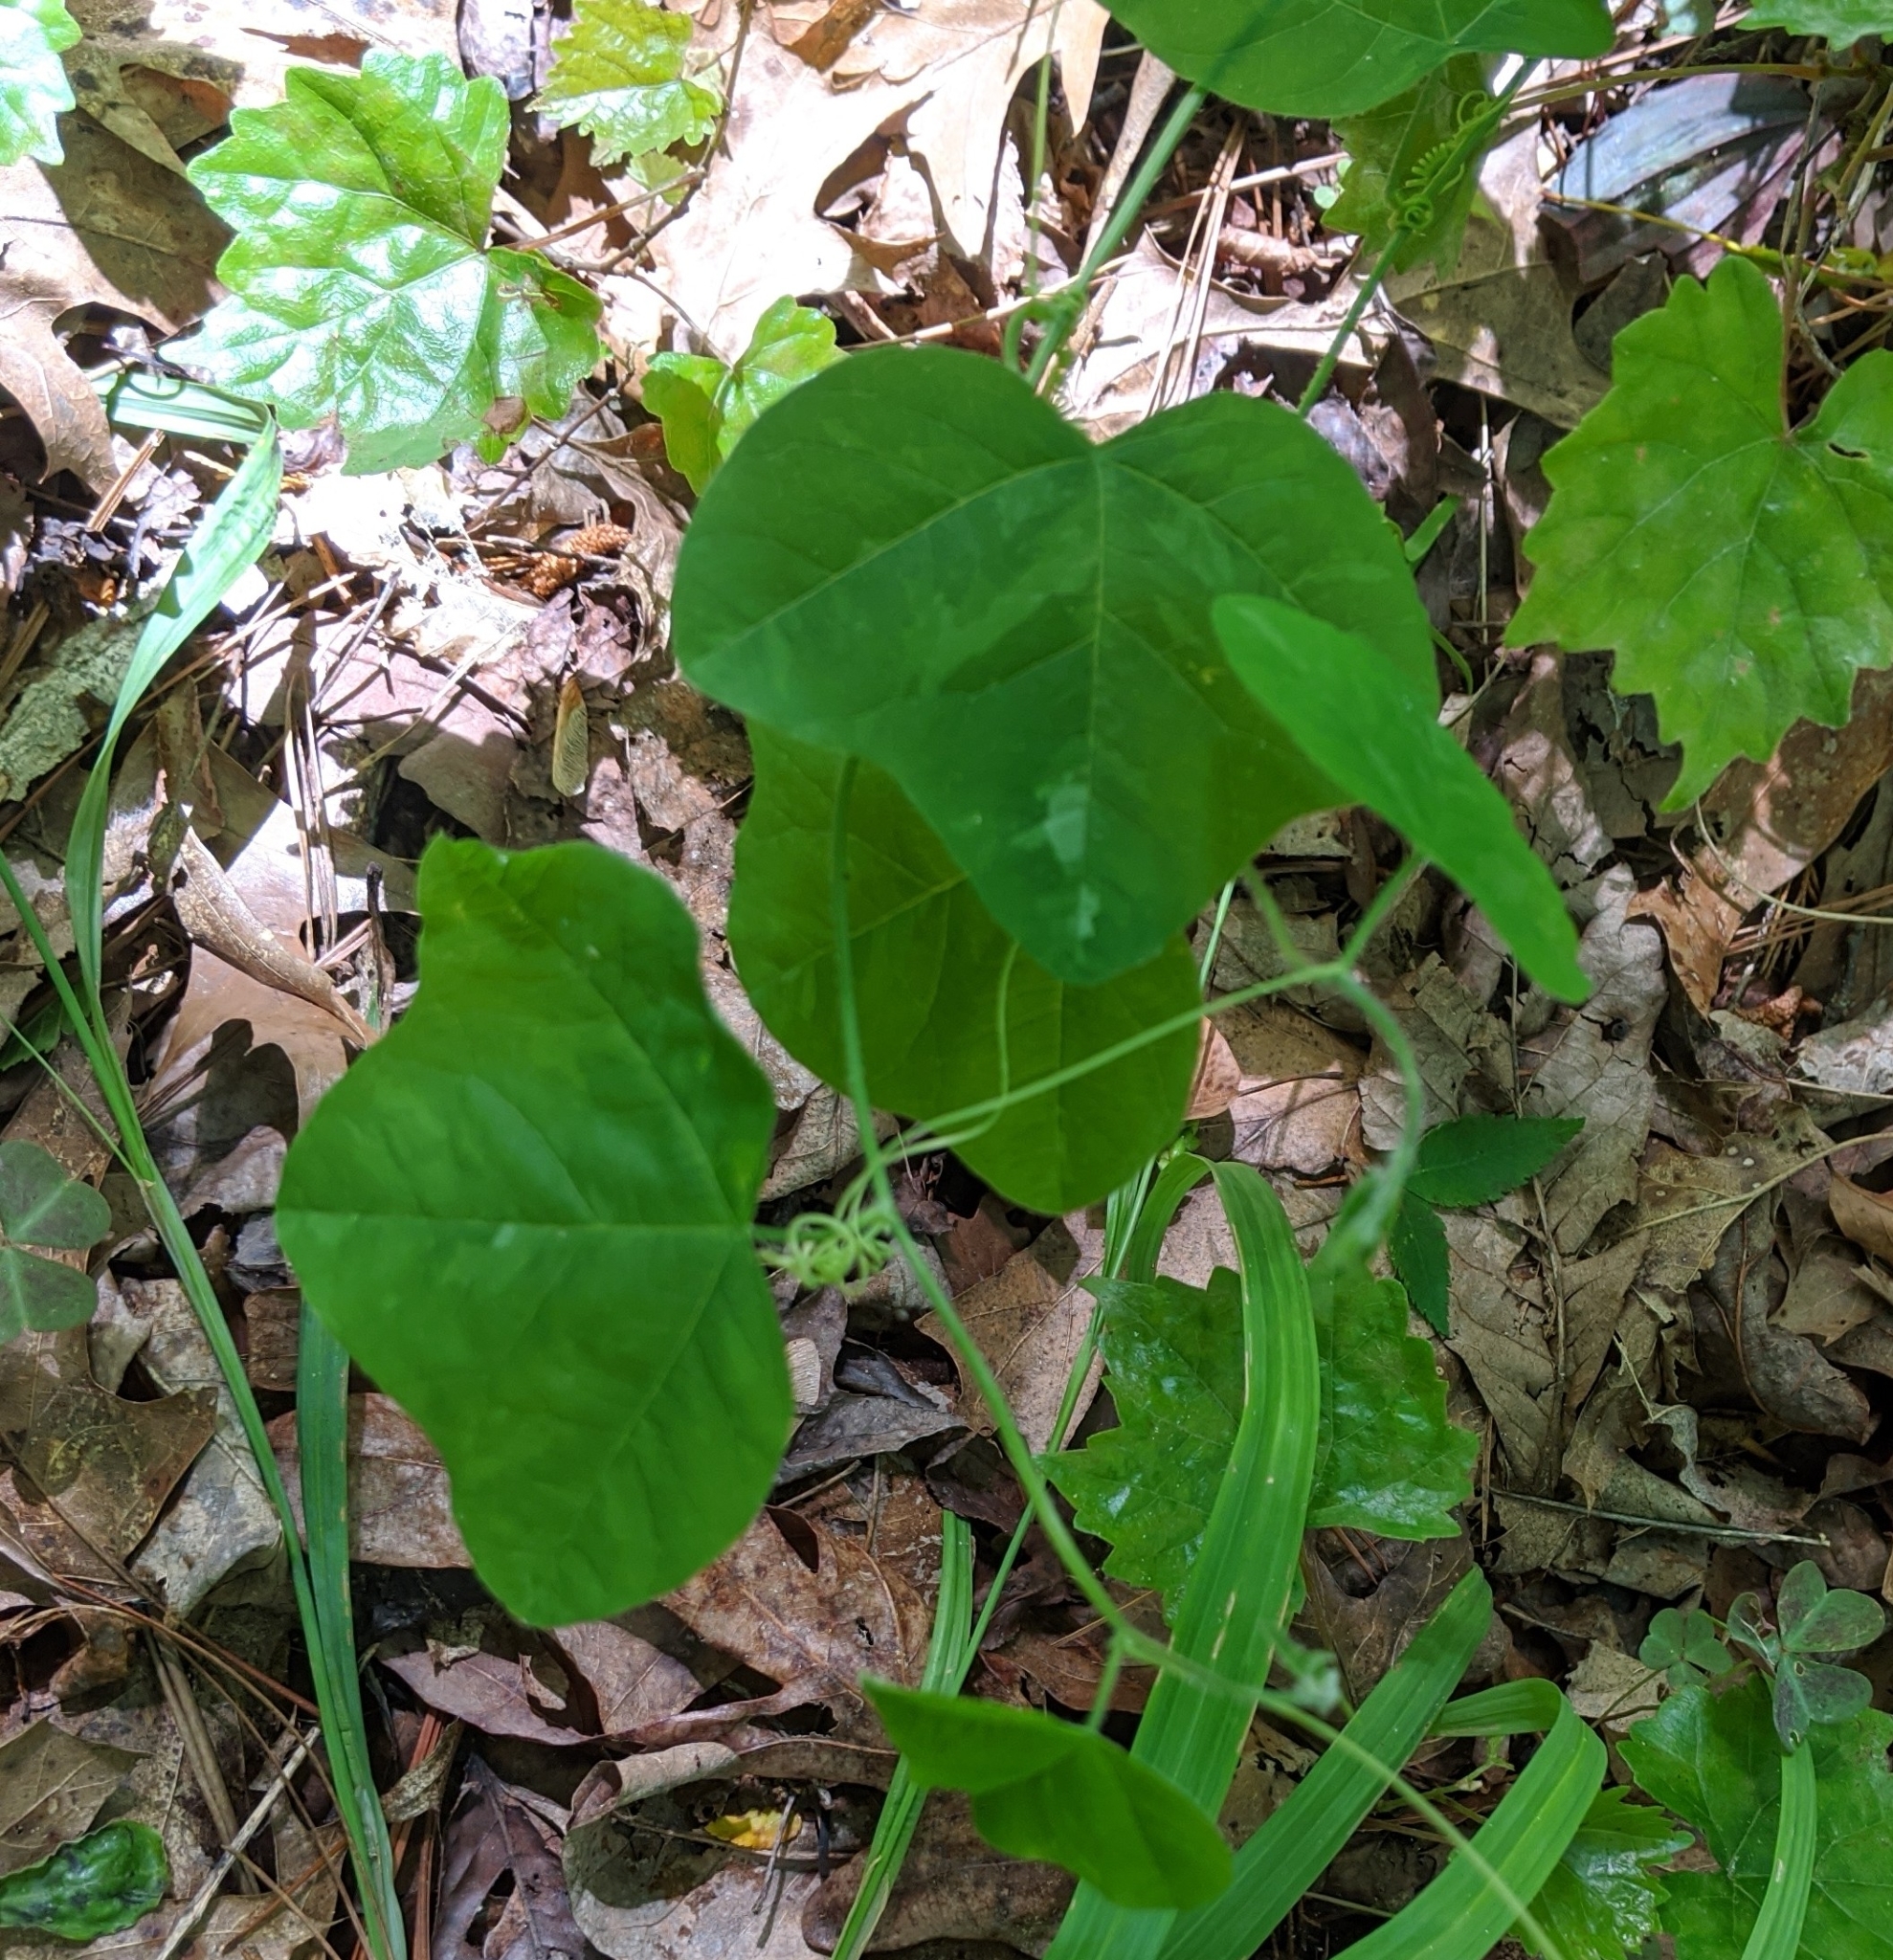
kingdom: Plantae
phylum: Tracheophyta
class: Magnoliopsida
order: Malpighiales
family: Passifloraceae
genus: Passiflora
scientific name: Passiflora lutea
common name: Yellow passionflower
